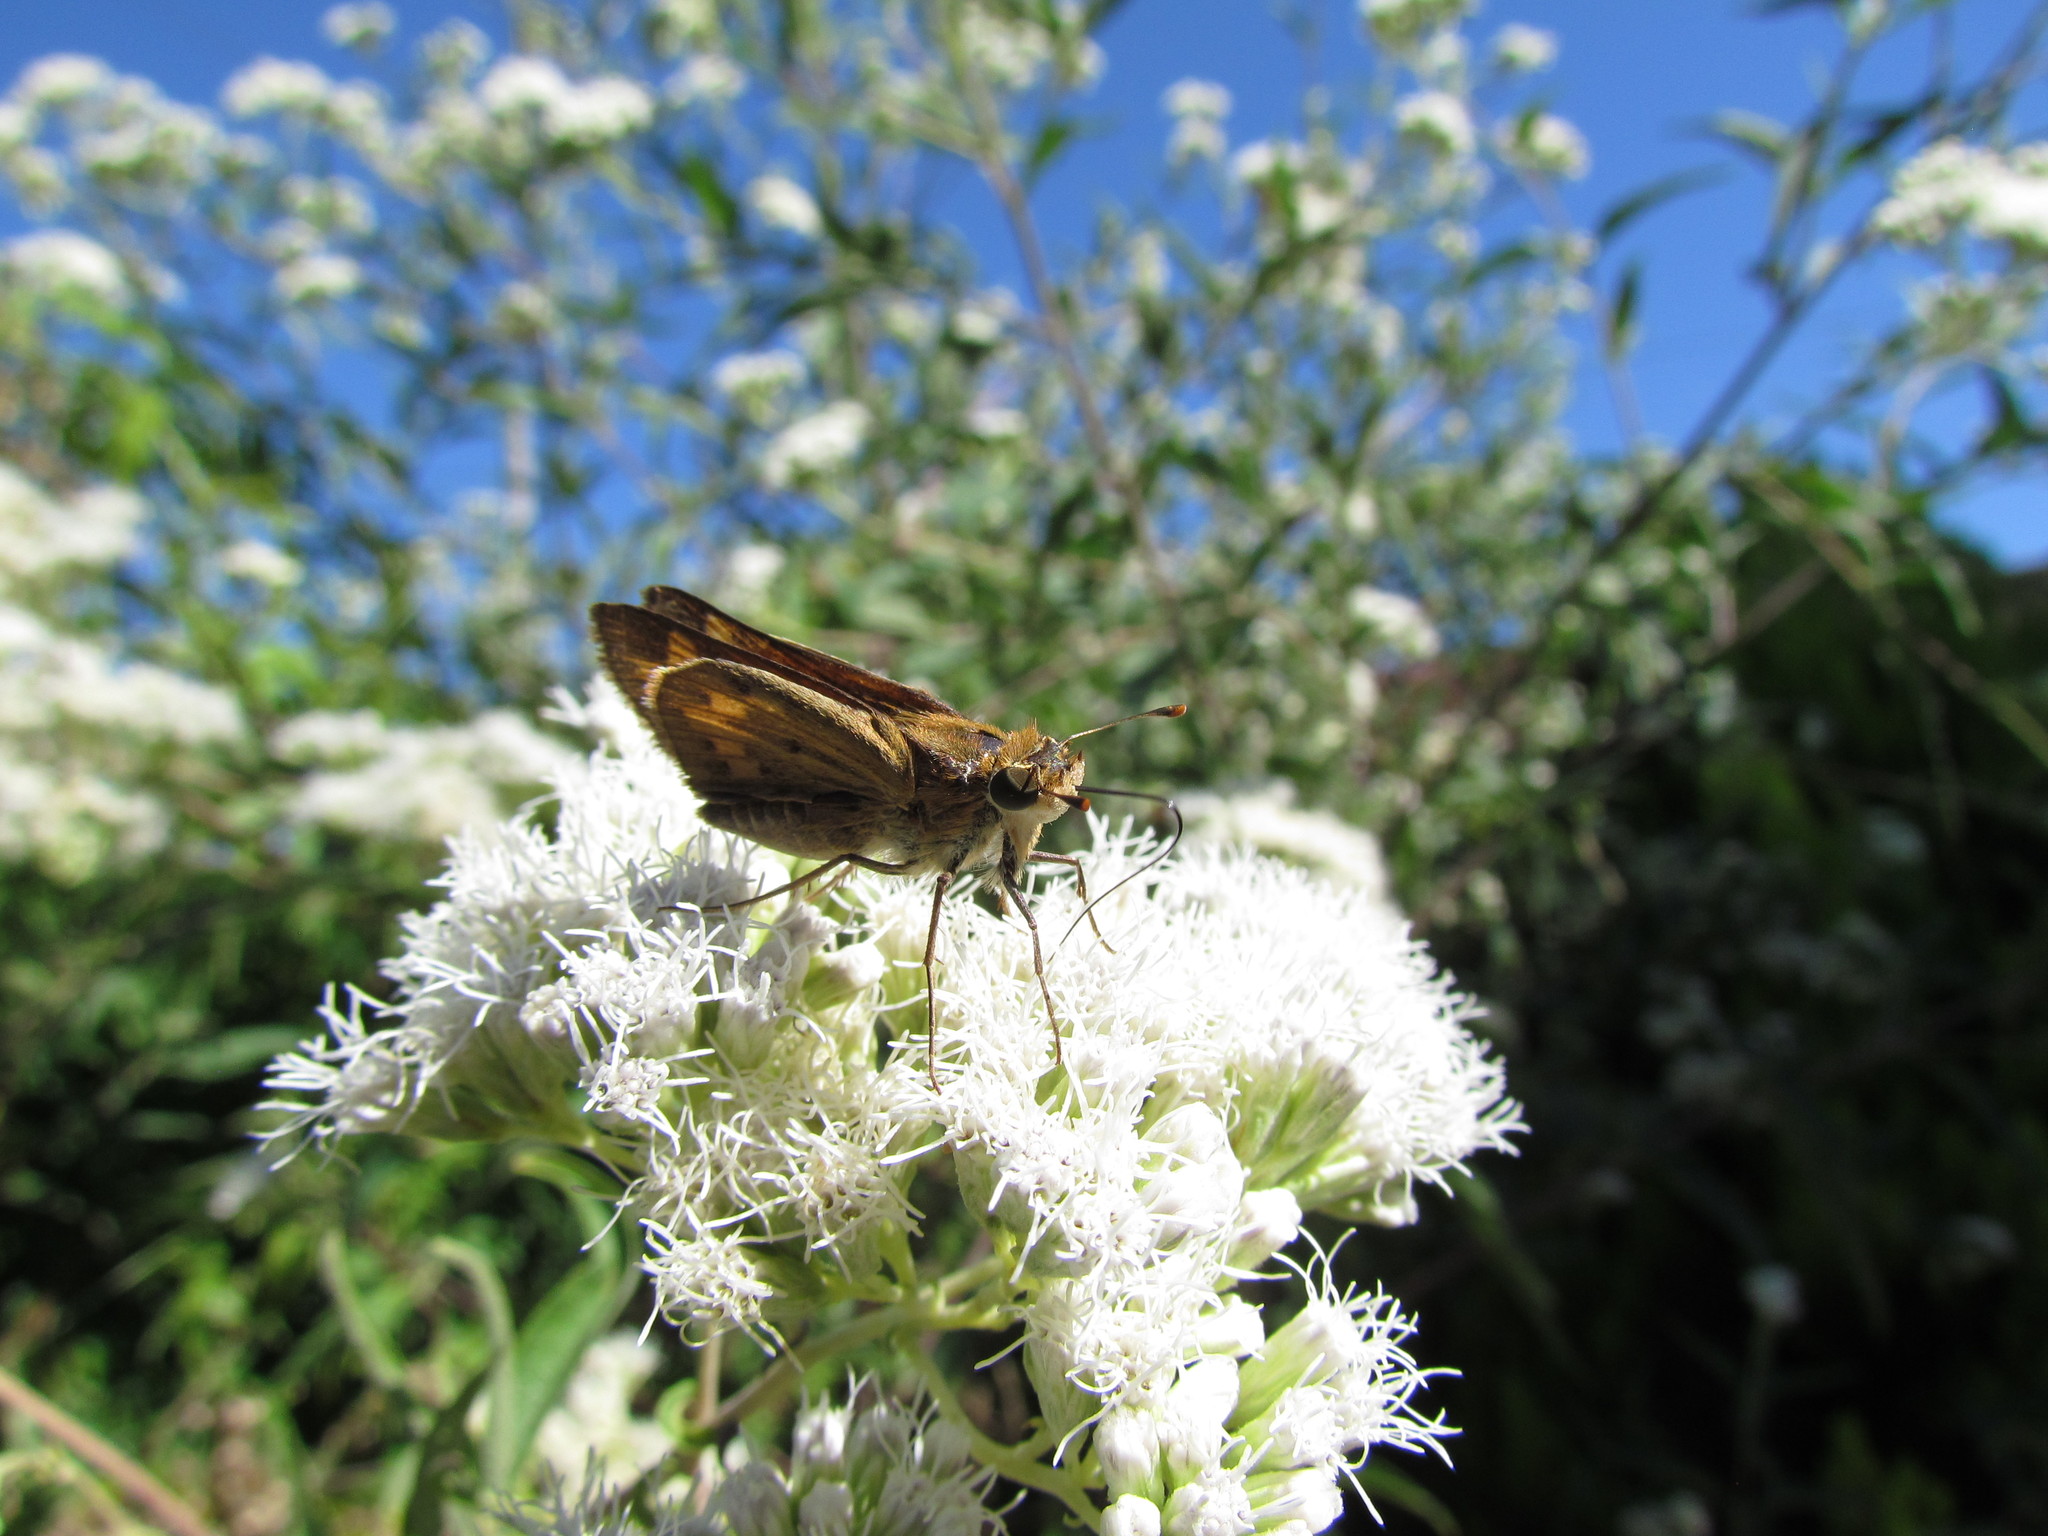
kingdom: Animalia
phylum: Arthropoda
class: Insecta
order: Lepidoptera
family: Hesperiidae
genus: Hylephila
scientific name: Hylephila phyleus
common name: Fiery skipper
